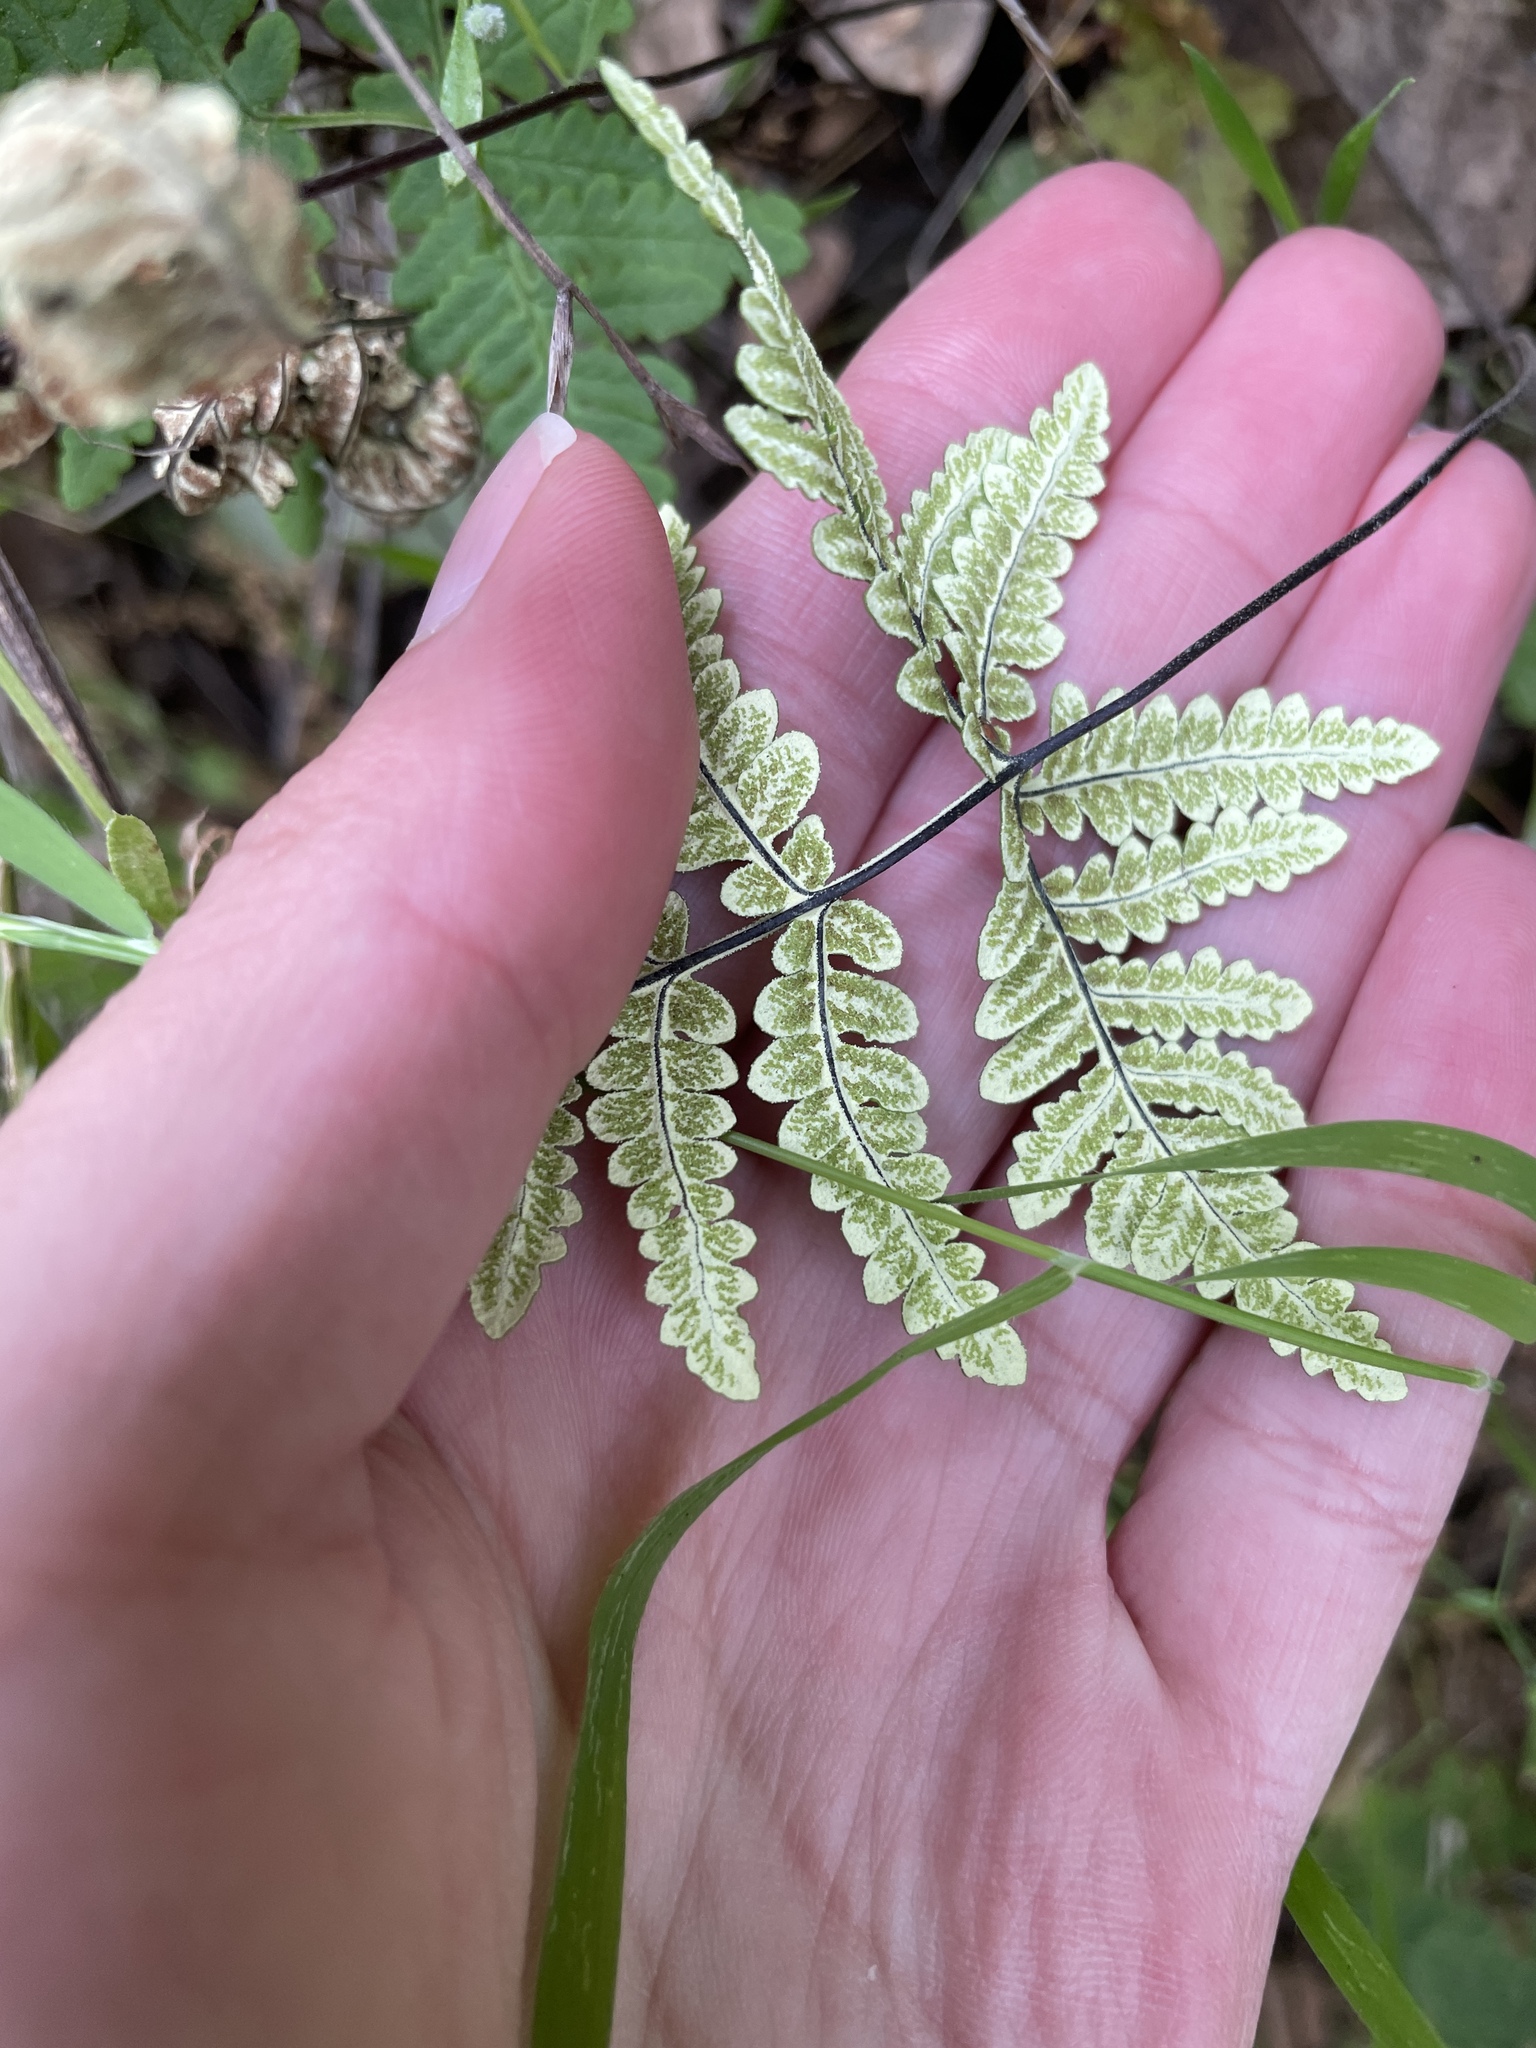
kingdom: Plantae
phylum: Tracheophyta
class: Polypodiopsida
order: Polypodiales
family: Pteridaceae
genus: Pentagramma
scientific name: Pentagramma triangularis
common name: Gold fern
